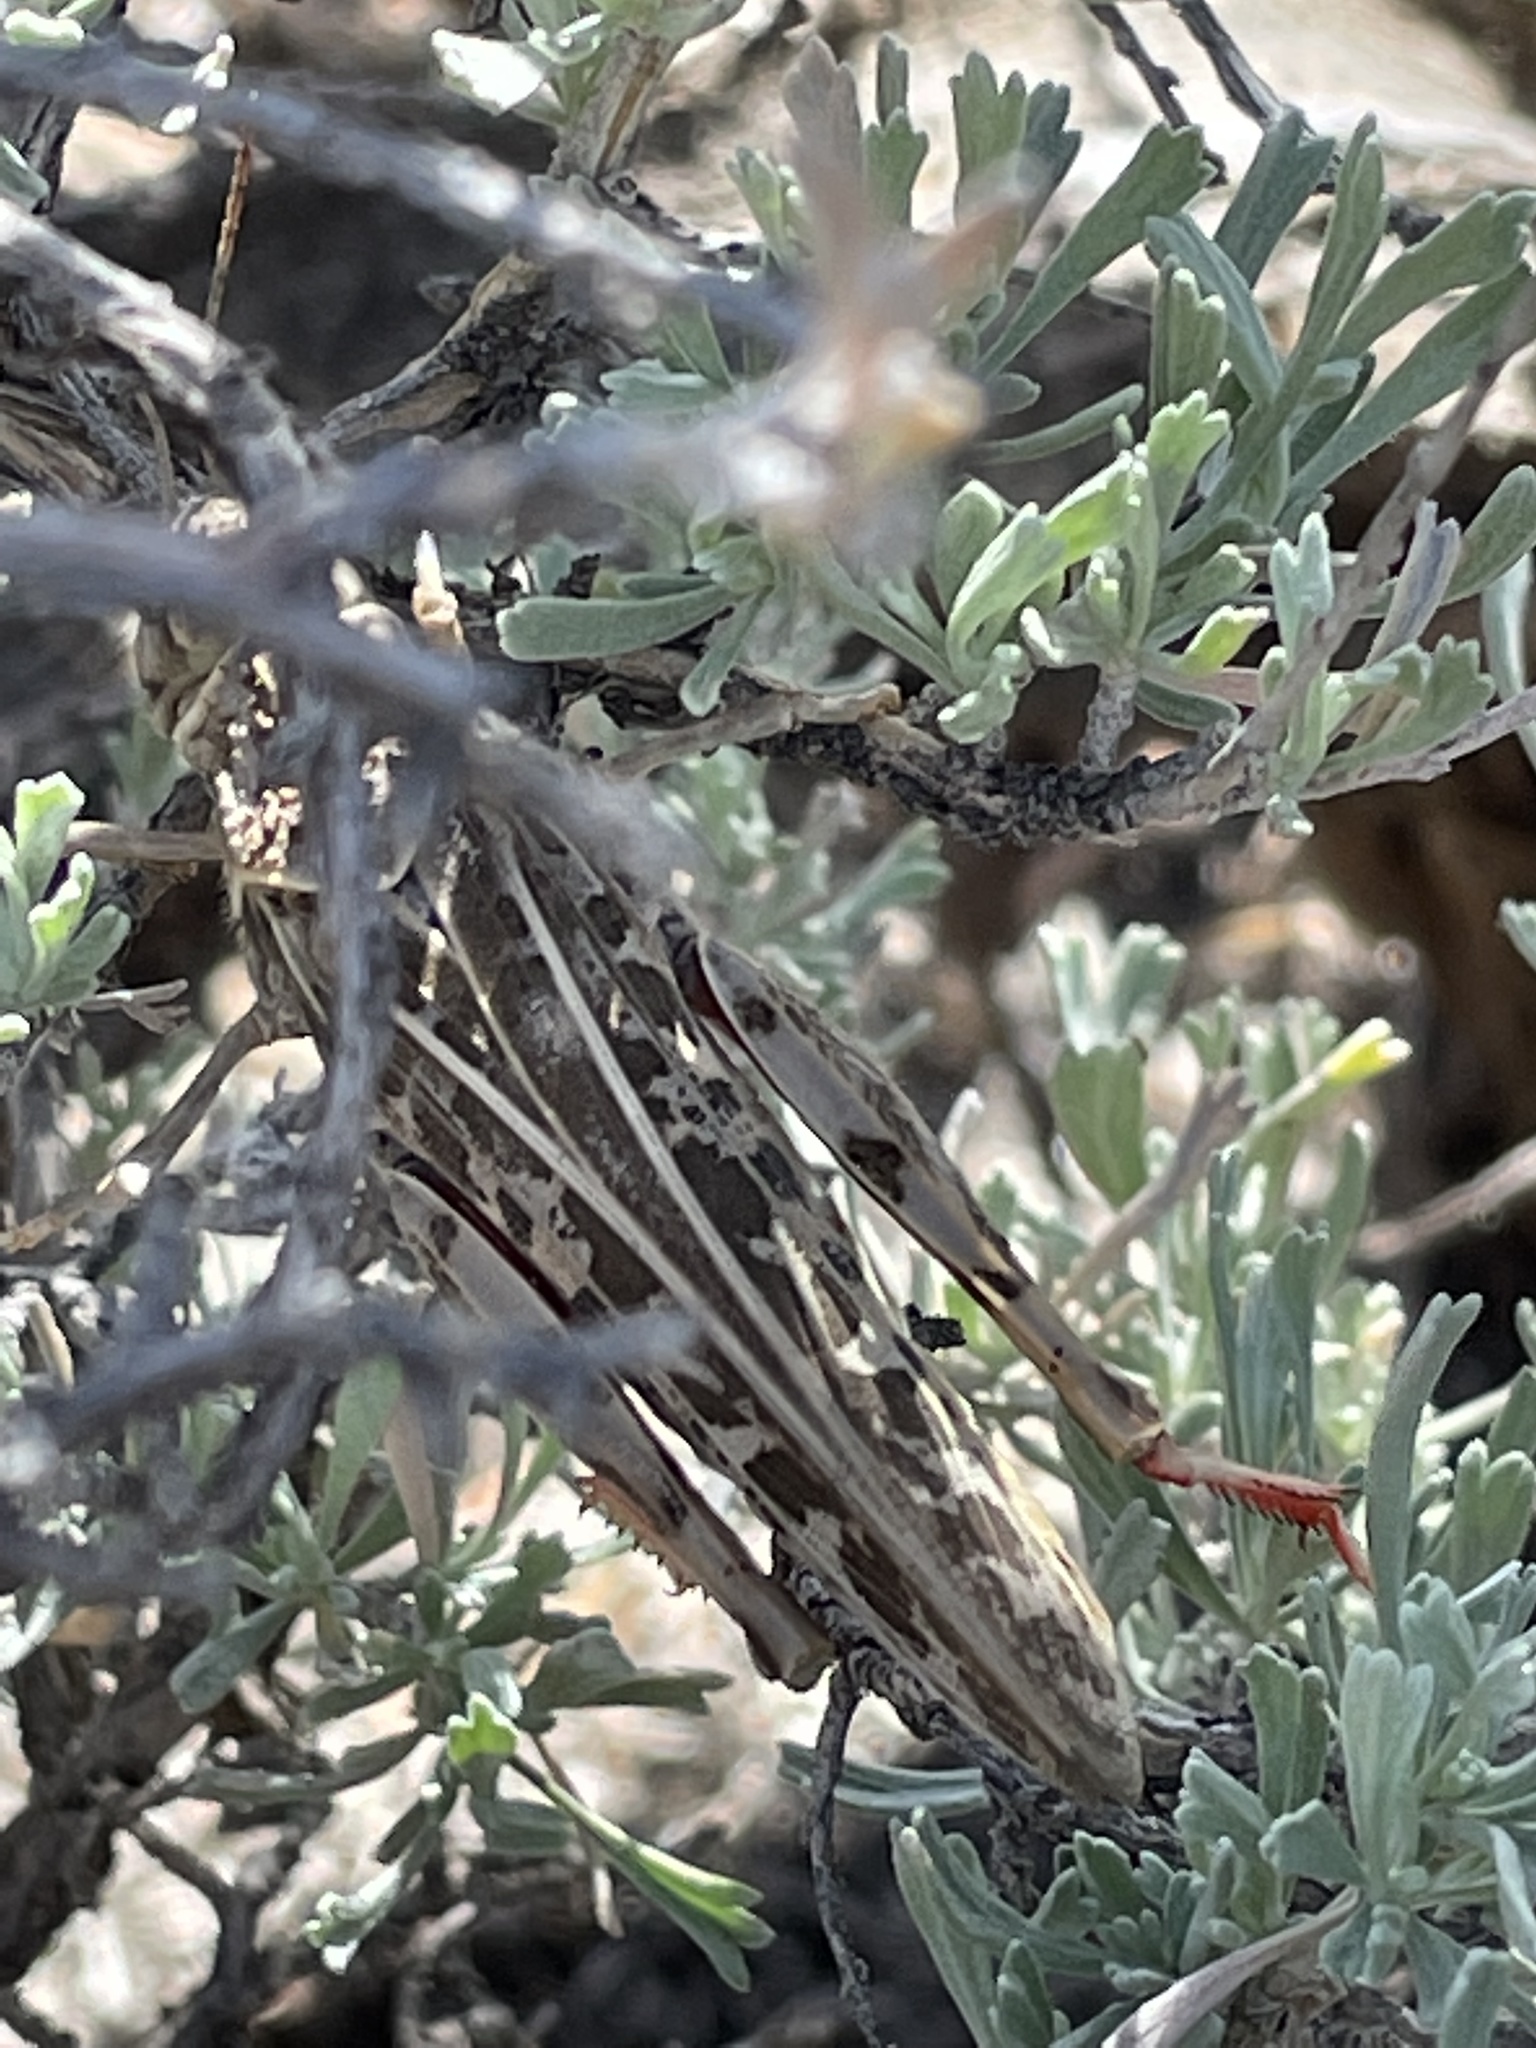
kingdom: Animalia
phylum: Arthropoda
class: Insecta
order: Orthoptera
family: Acrididae
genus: Xanthippus
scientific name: Xanthippus corallipes
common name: Redshanked grasshopper
